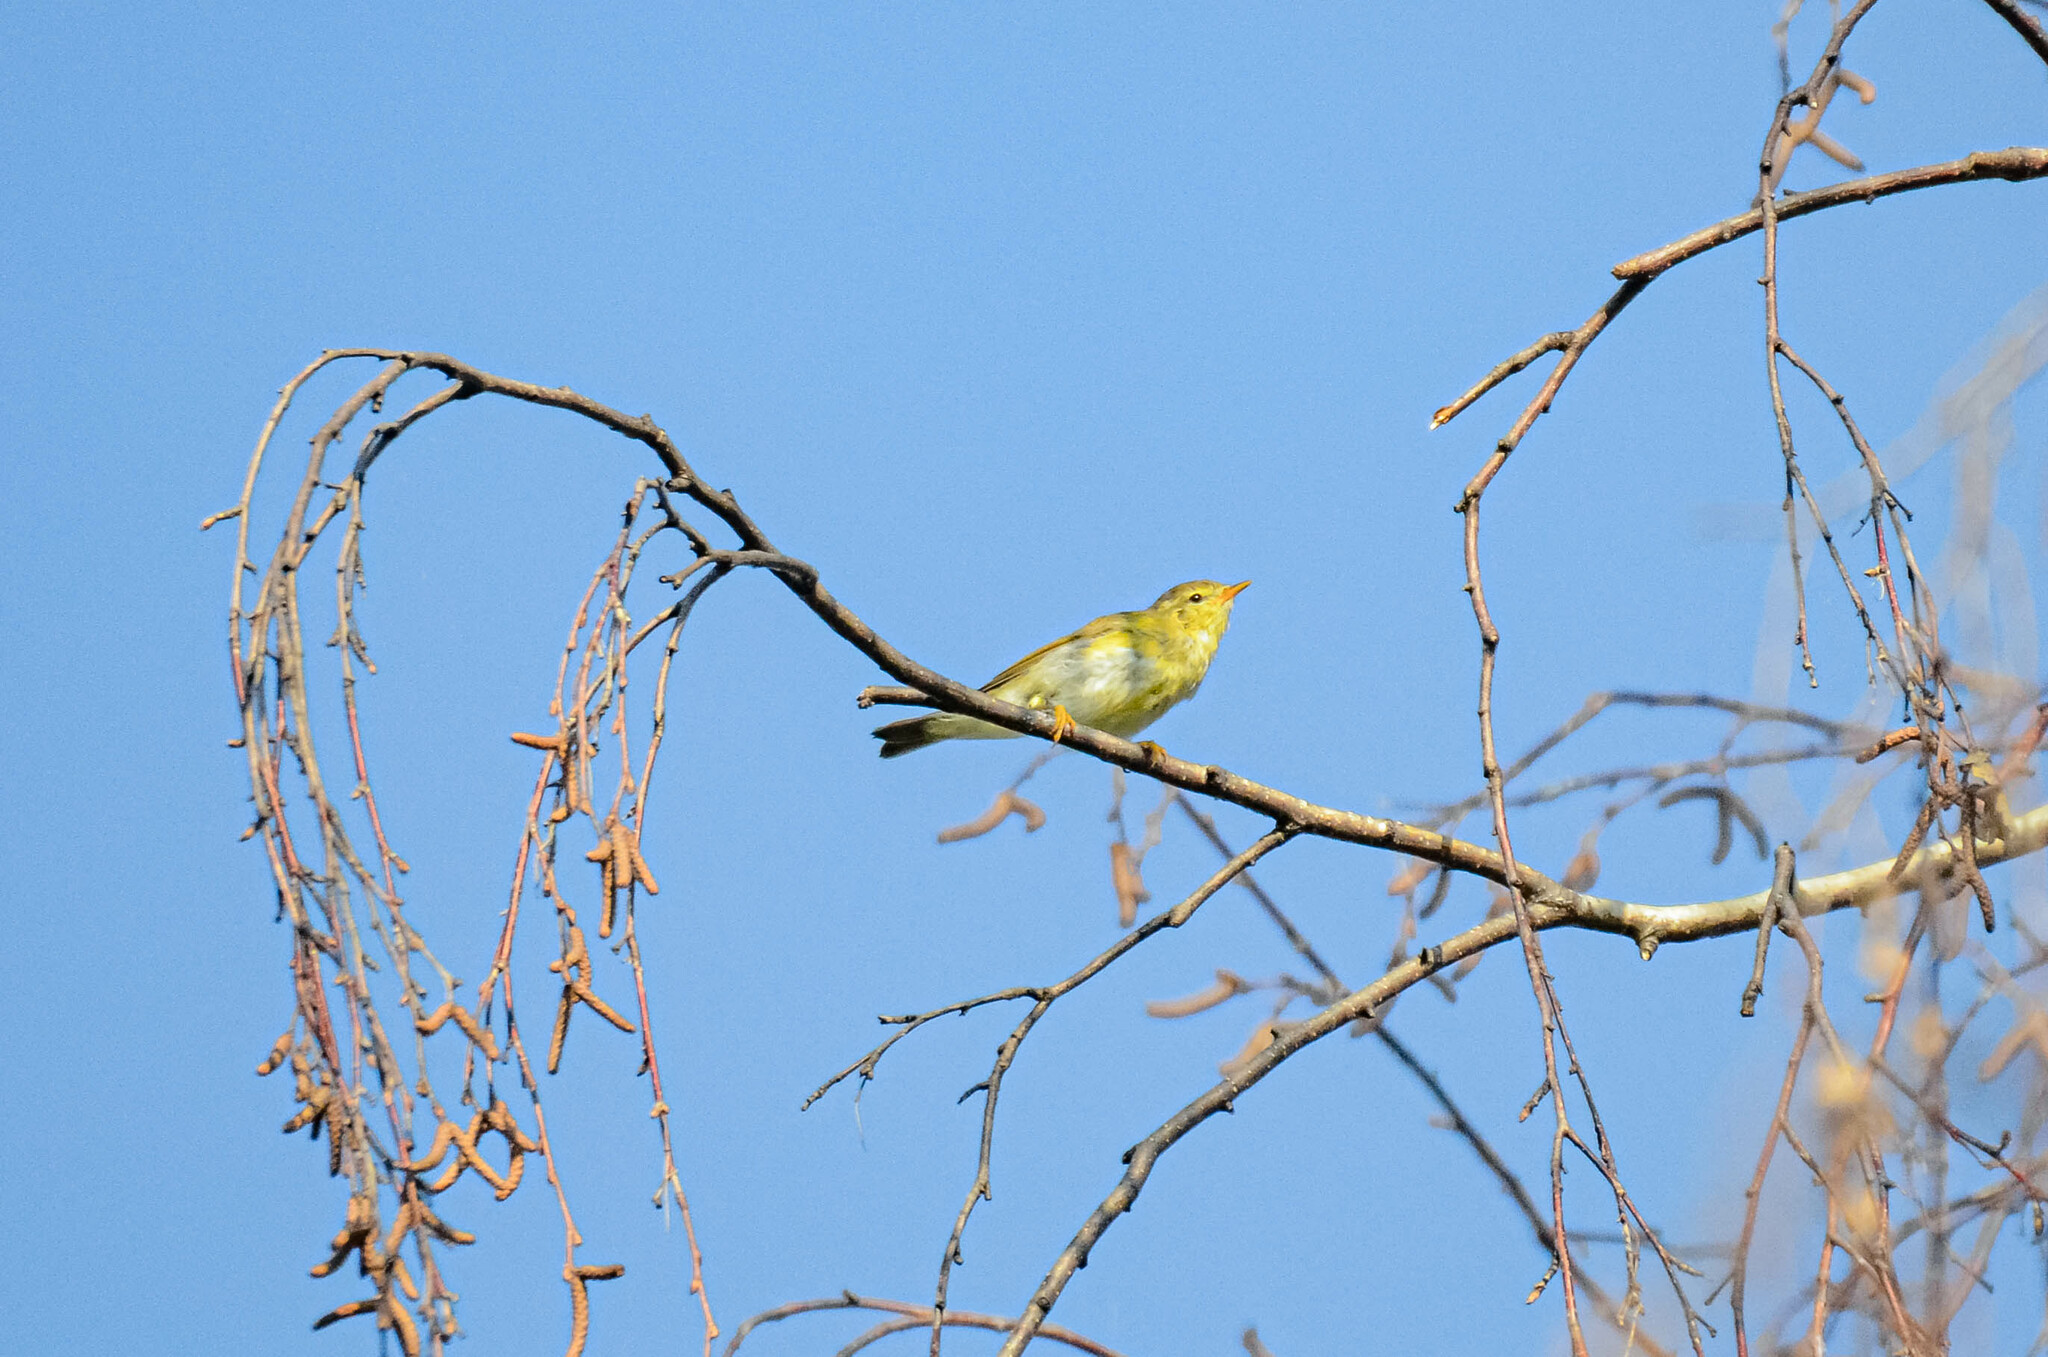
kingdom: Animalia
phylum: Chordata
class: Aves
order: Passeriformes
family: Phylloscopidae
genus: Phylloscopus
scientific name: Phylloscopus trochilus
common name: Willow warbler
